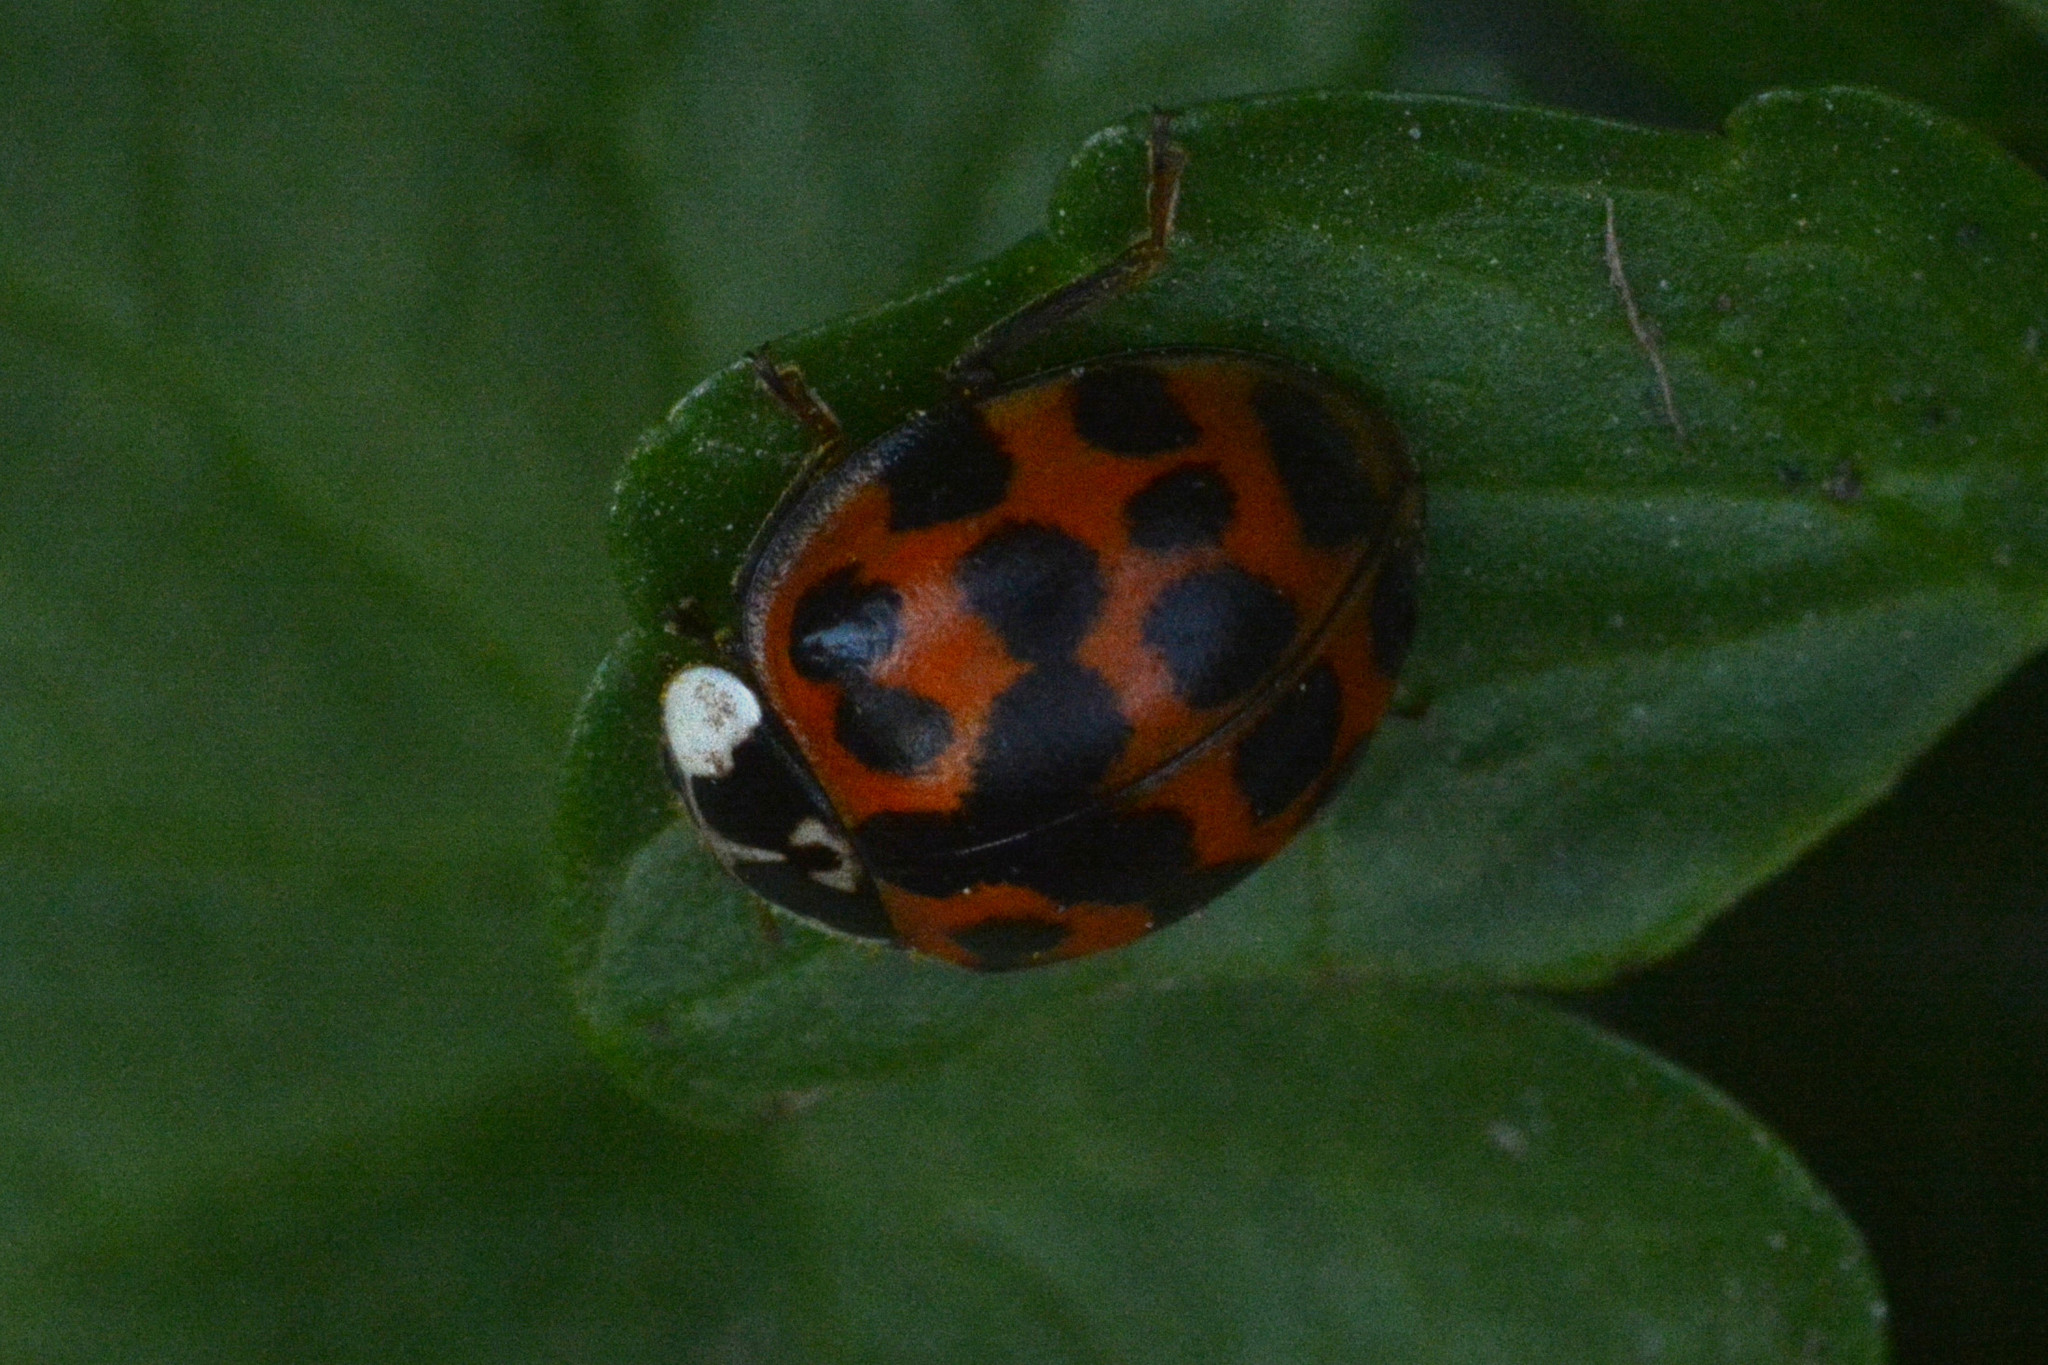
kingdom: Animalia
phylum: Arthropoda
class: Insecta
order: Coleoptera
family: Coccinellidae
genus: Harmonia
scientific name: Harmonia axyridis
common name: Harlequin ladybird
